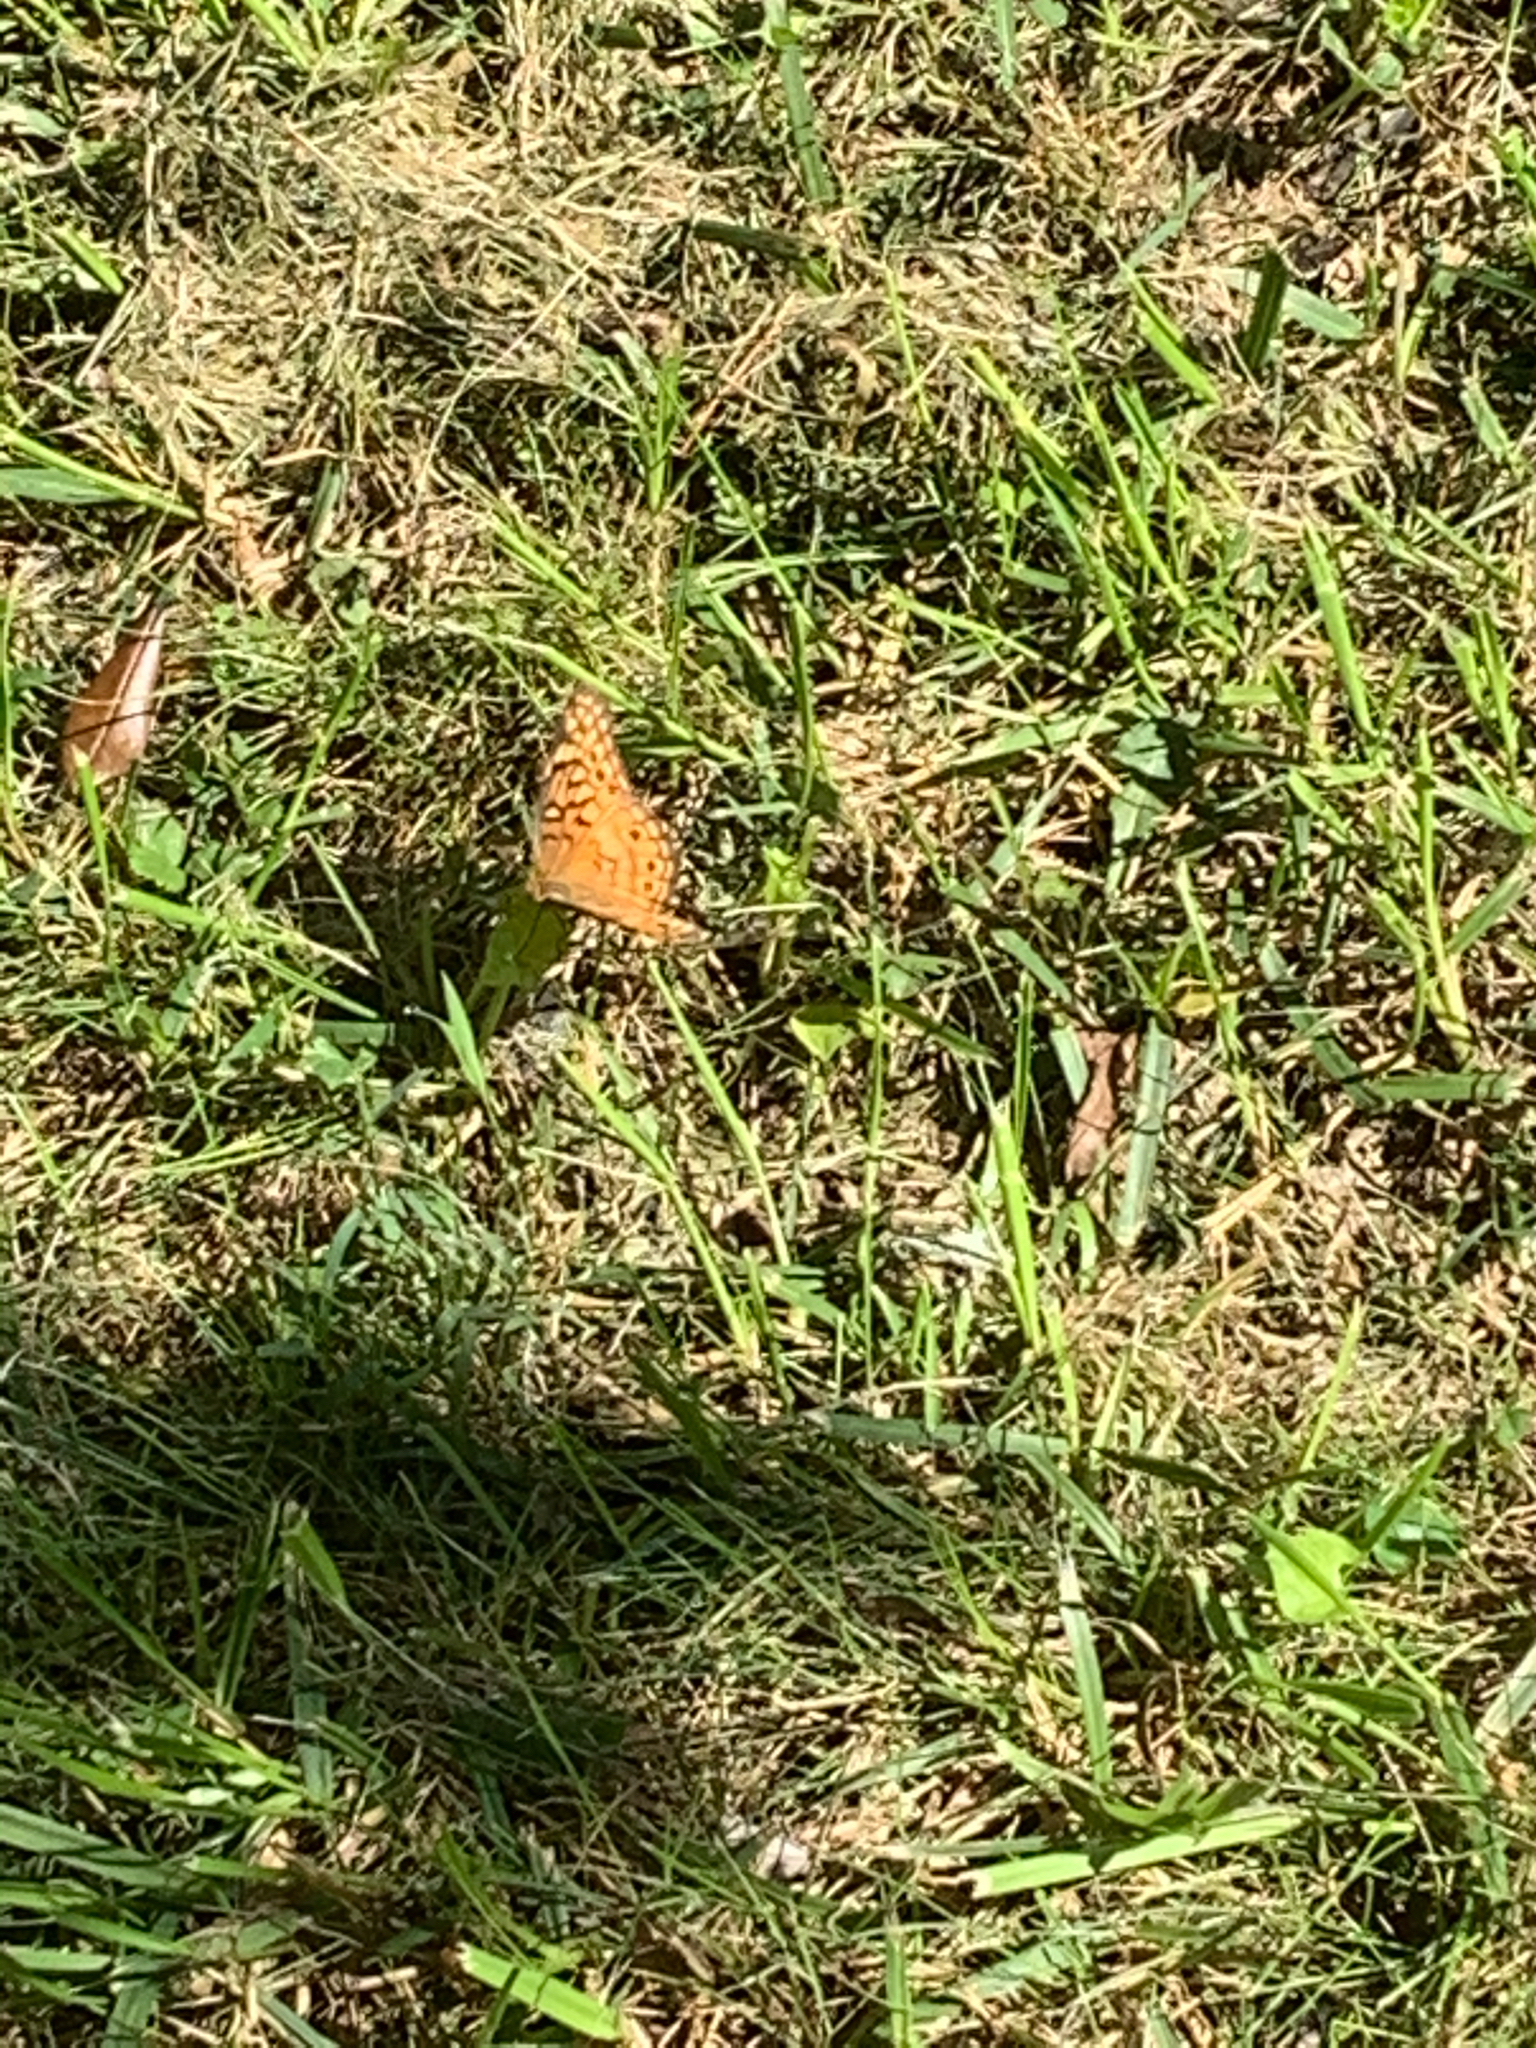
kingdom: Animalia
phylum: Arthropoda
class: Insecta
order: Lepidoptera
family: Nymphalidae
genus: Euptoieta
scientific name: Euptoieta claudia
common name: Variegated fritillary
